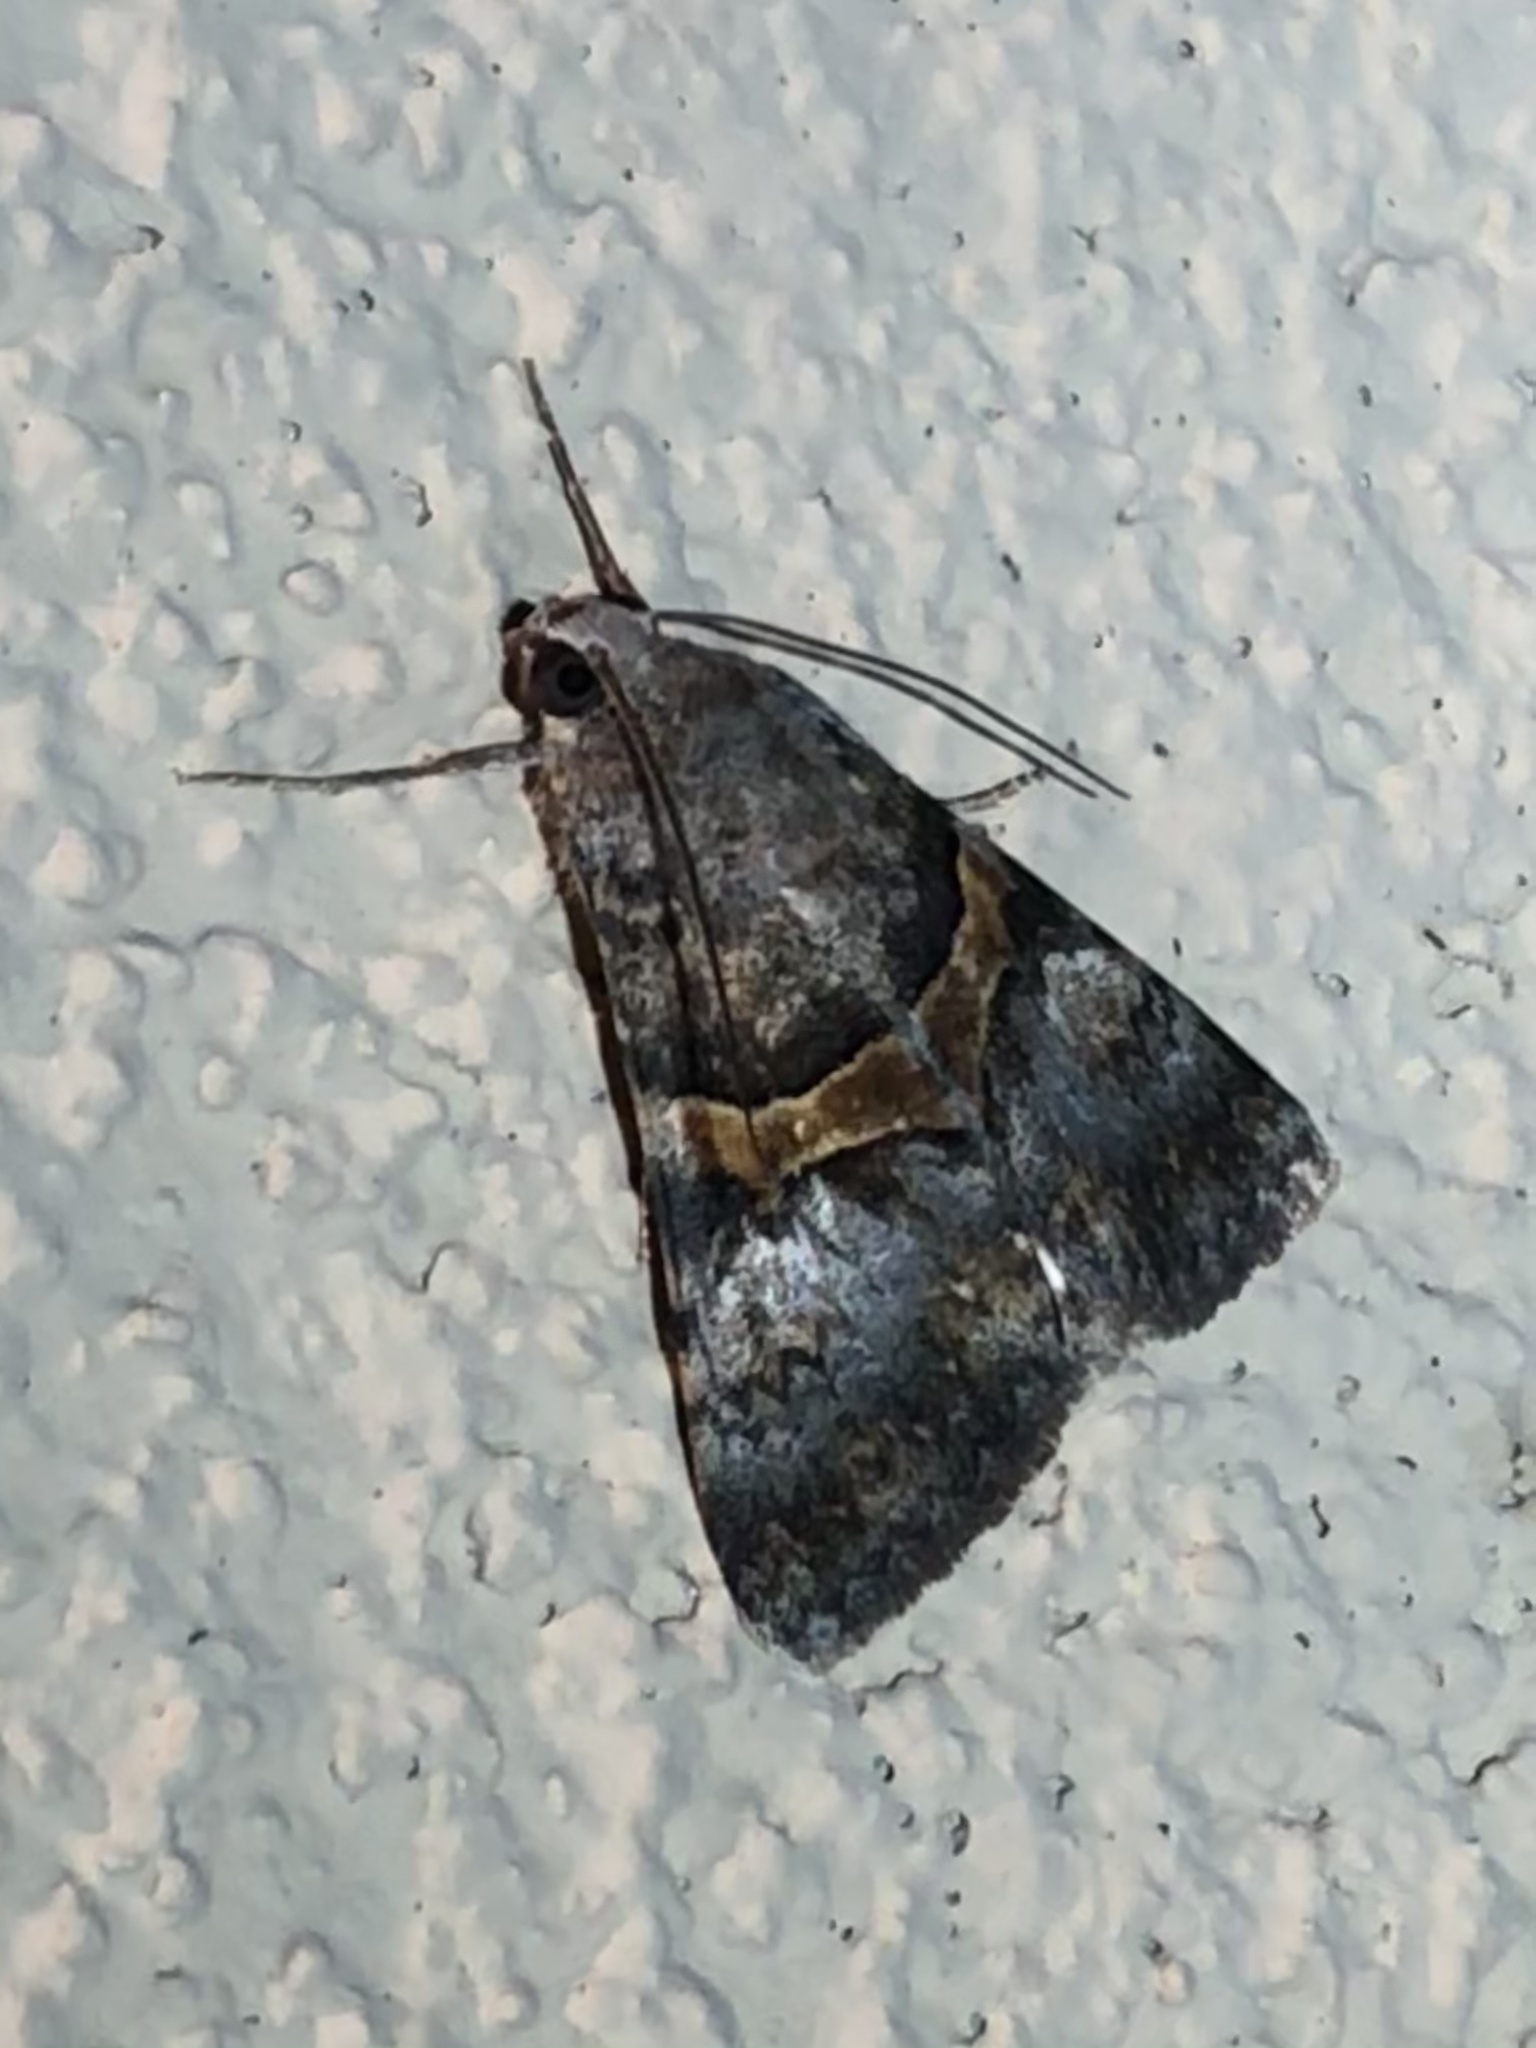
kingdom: Animalia
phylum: Arthropoda
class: Insecta
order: Lepidoptera
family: Erebidae
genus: Melipotis
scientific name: Melipotis jucunda
